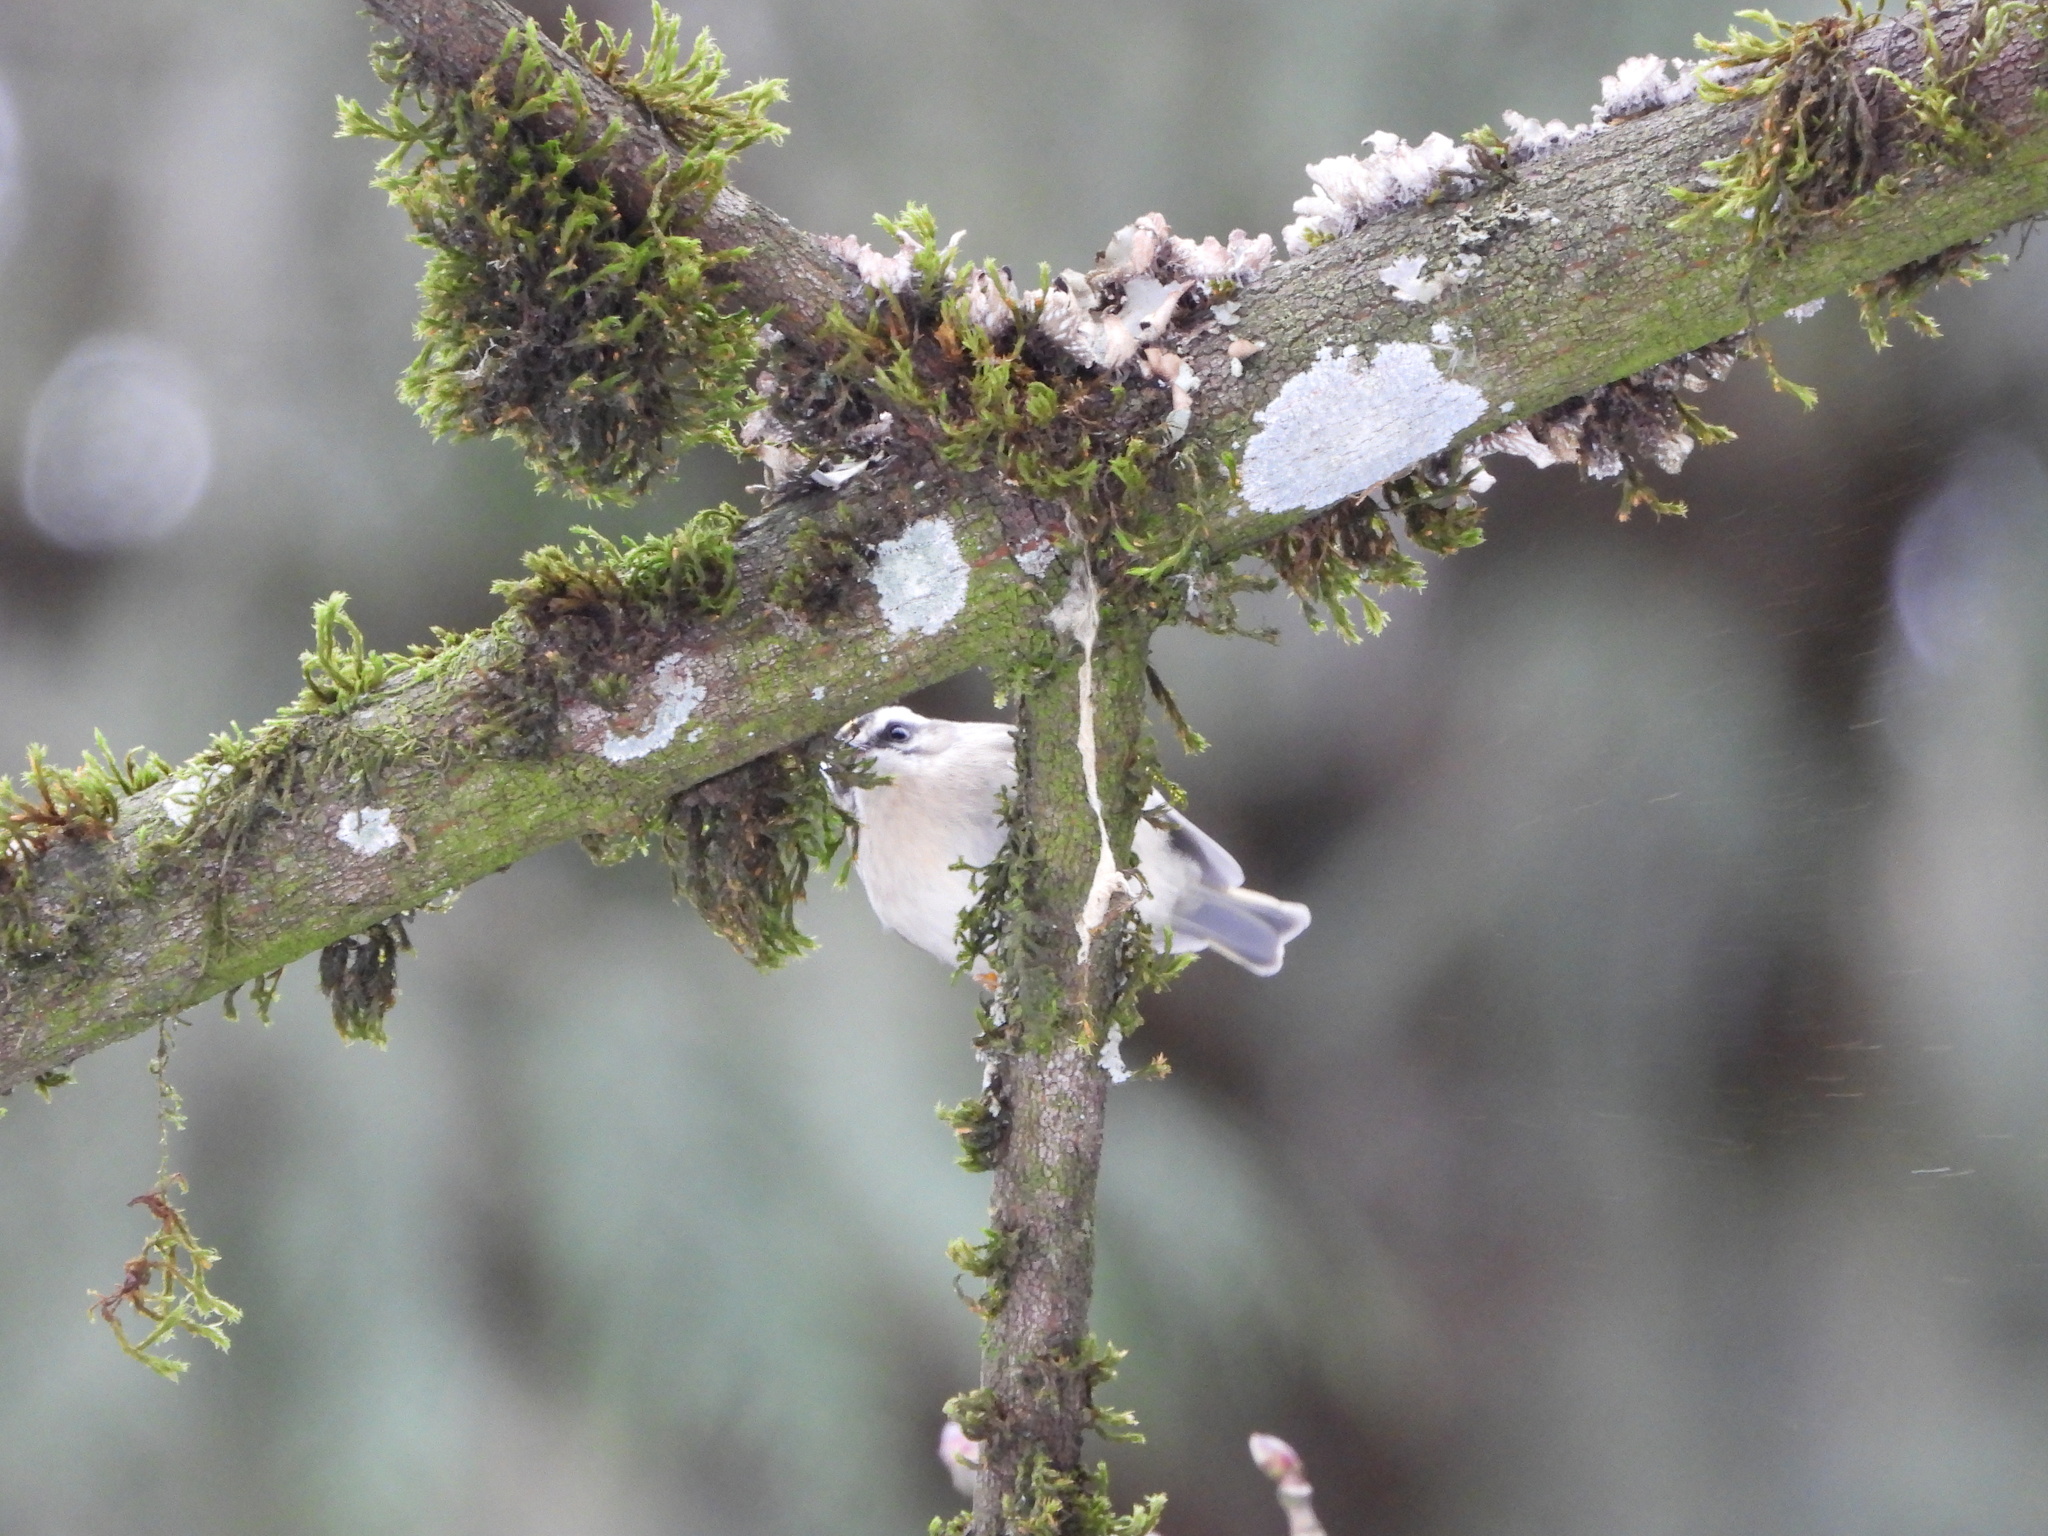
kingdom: Animalia
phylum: Chordata
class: Aves
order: Passeriformes
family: Regulidae
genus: Regulus
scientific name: Regulus satrapa
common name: Golden-crowned kinglet
